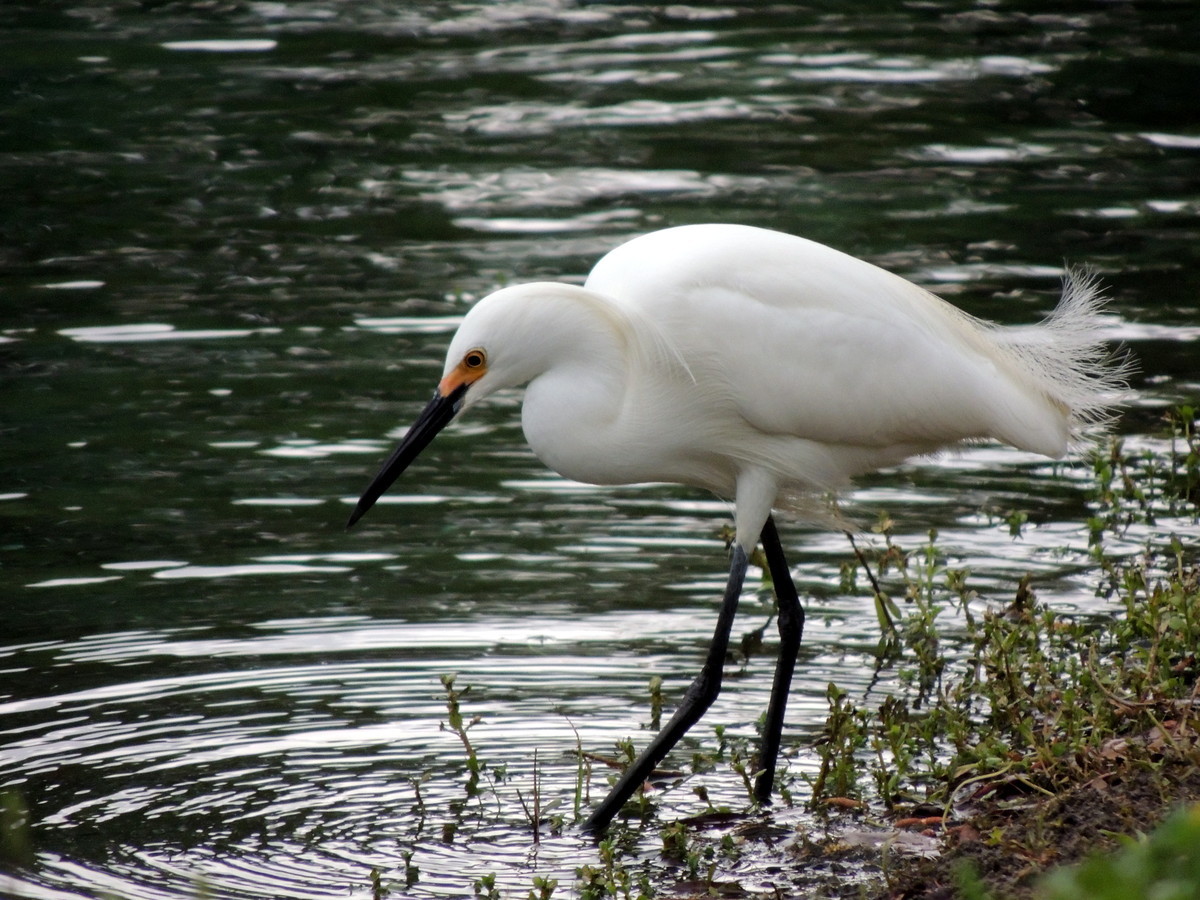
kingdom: Animalia
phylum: Chordata
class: Aves
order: Pelecaniformes
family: Ardeidae
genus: Egretta
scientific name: Egretta thula
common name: Snowy egret
